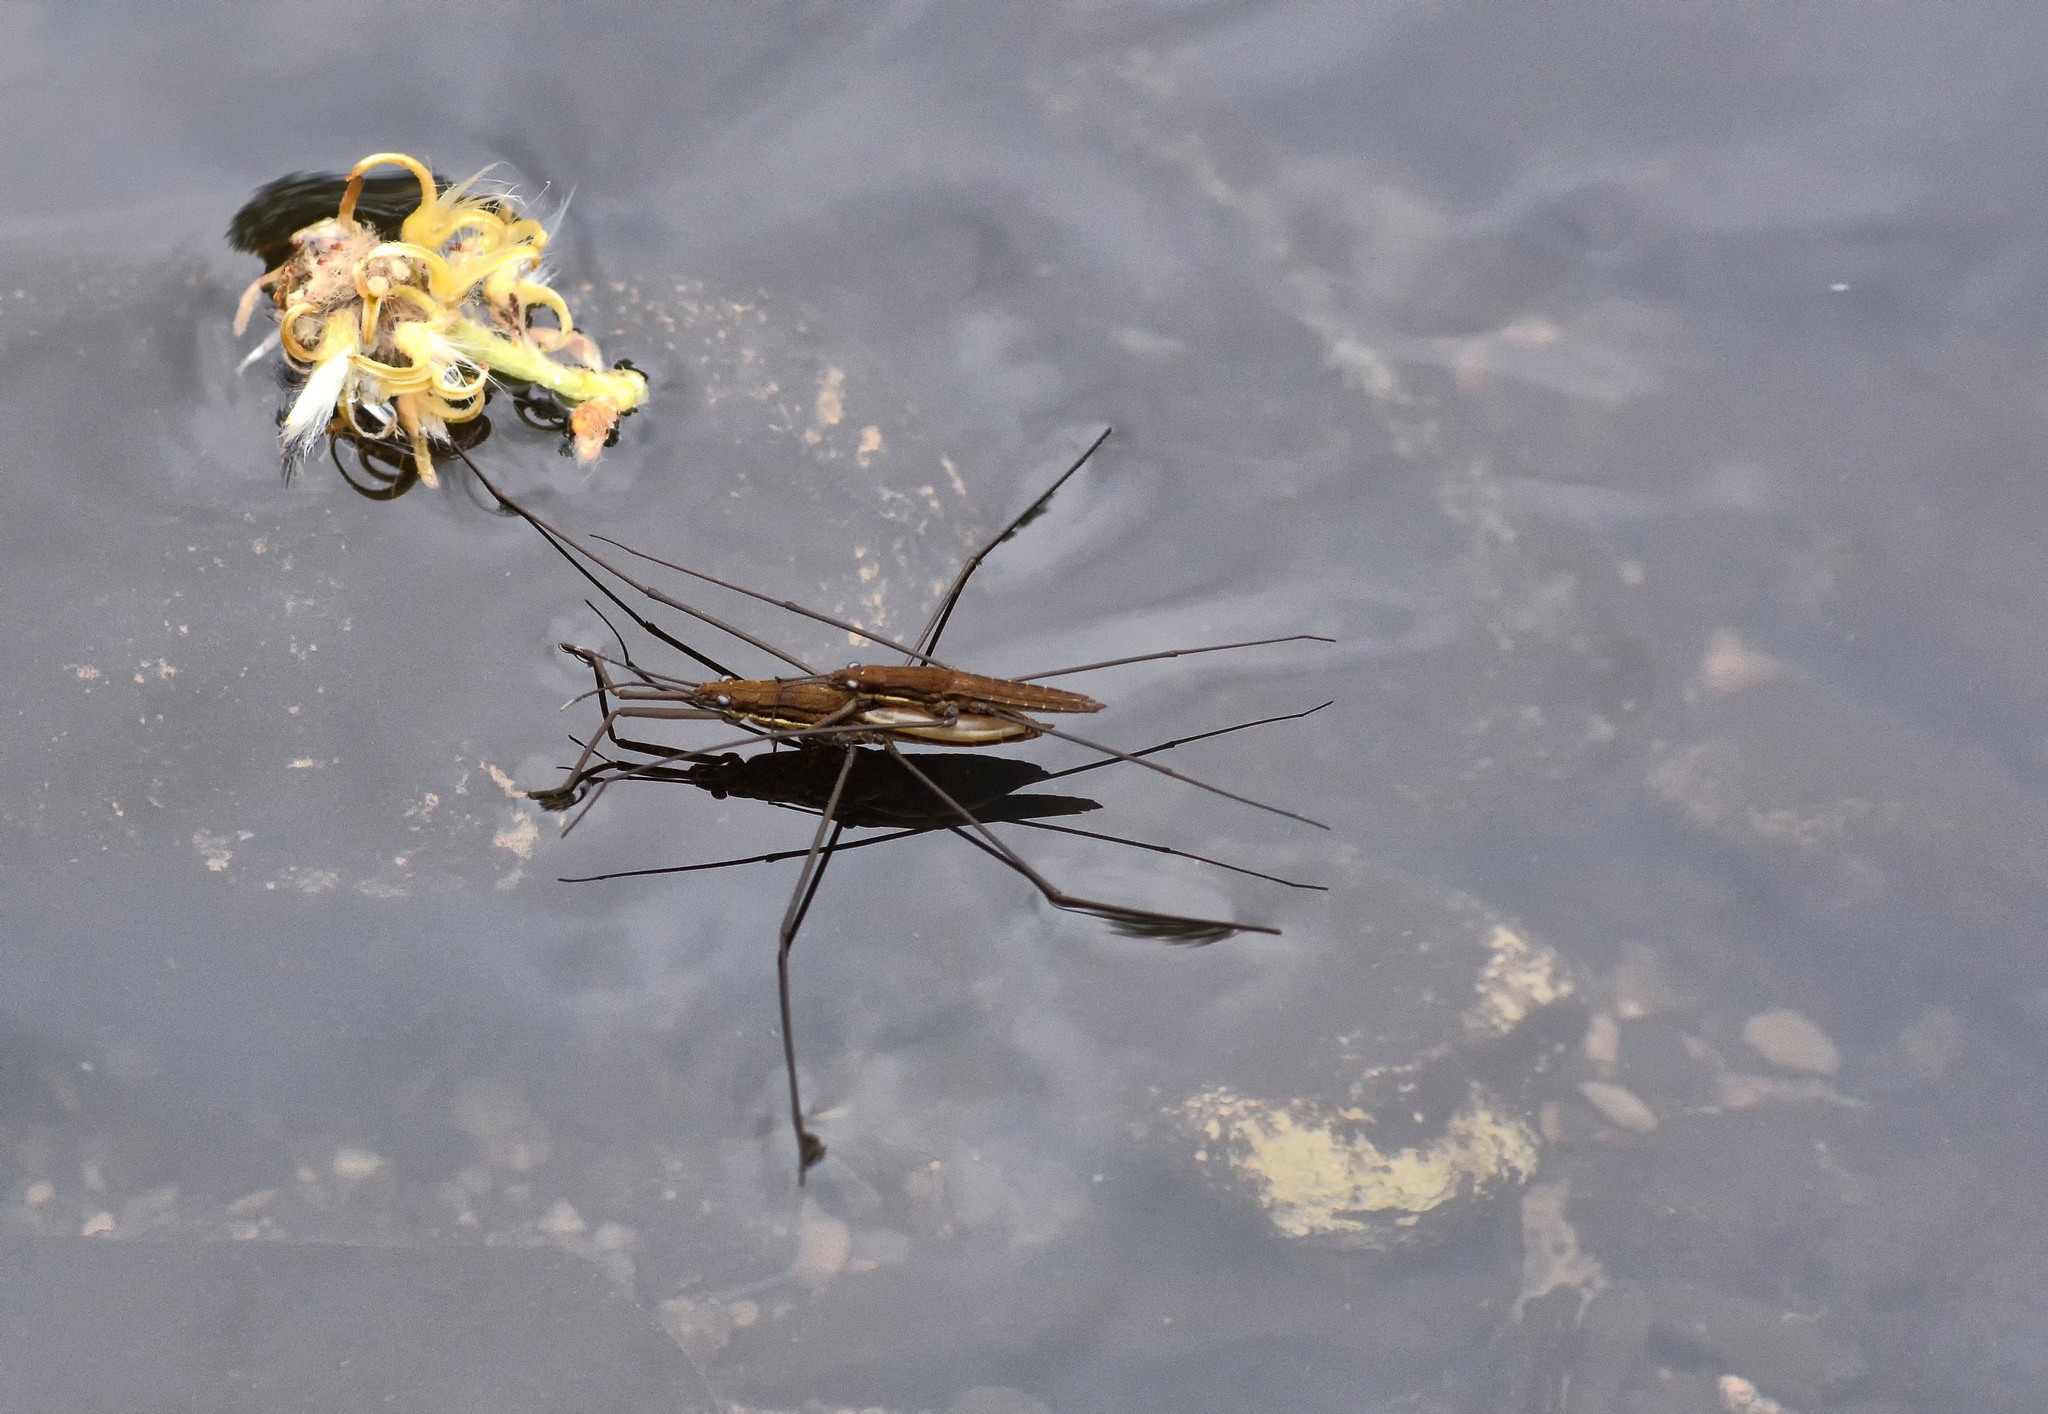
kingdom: Animalia
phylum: Arthropoda
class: Insecta
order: Hemiptera
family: Gerridae
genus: Aquarius
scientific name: Aquarius najas
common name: River skater
